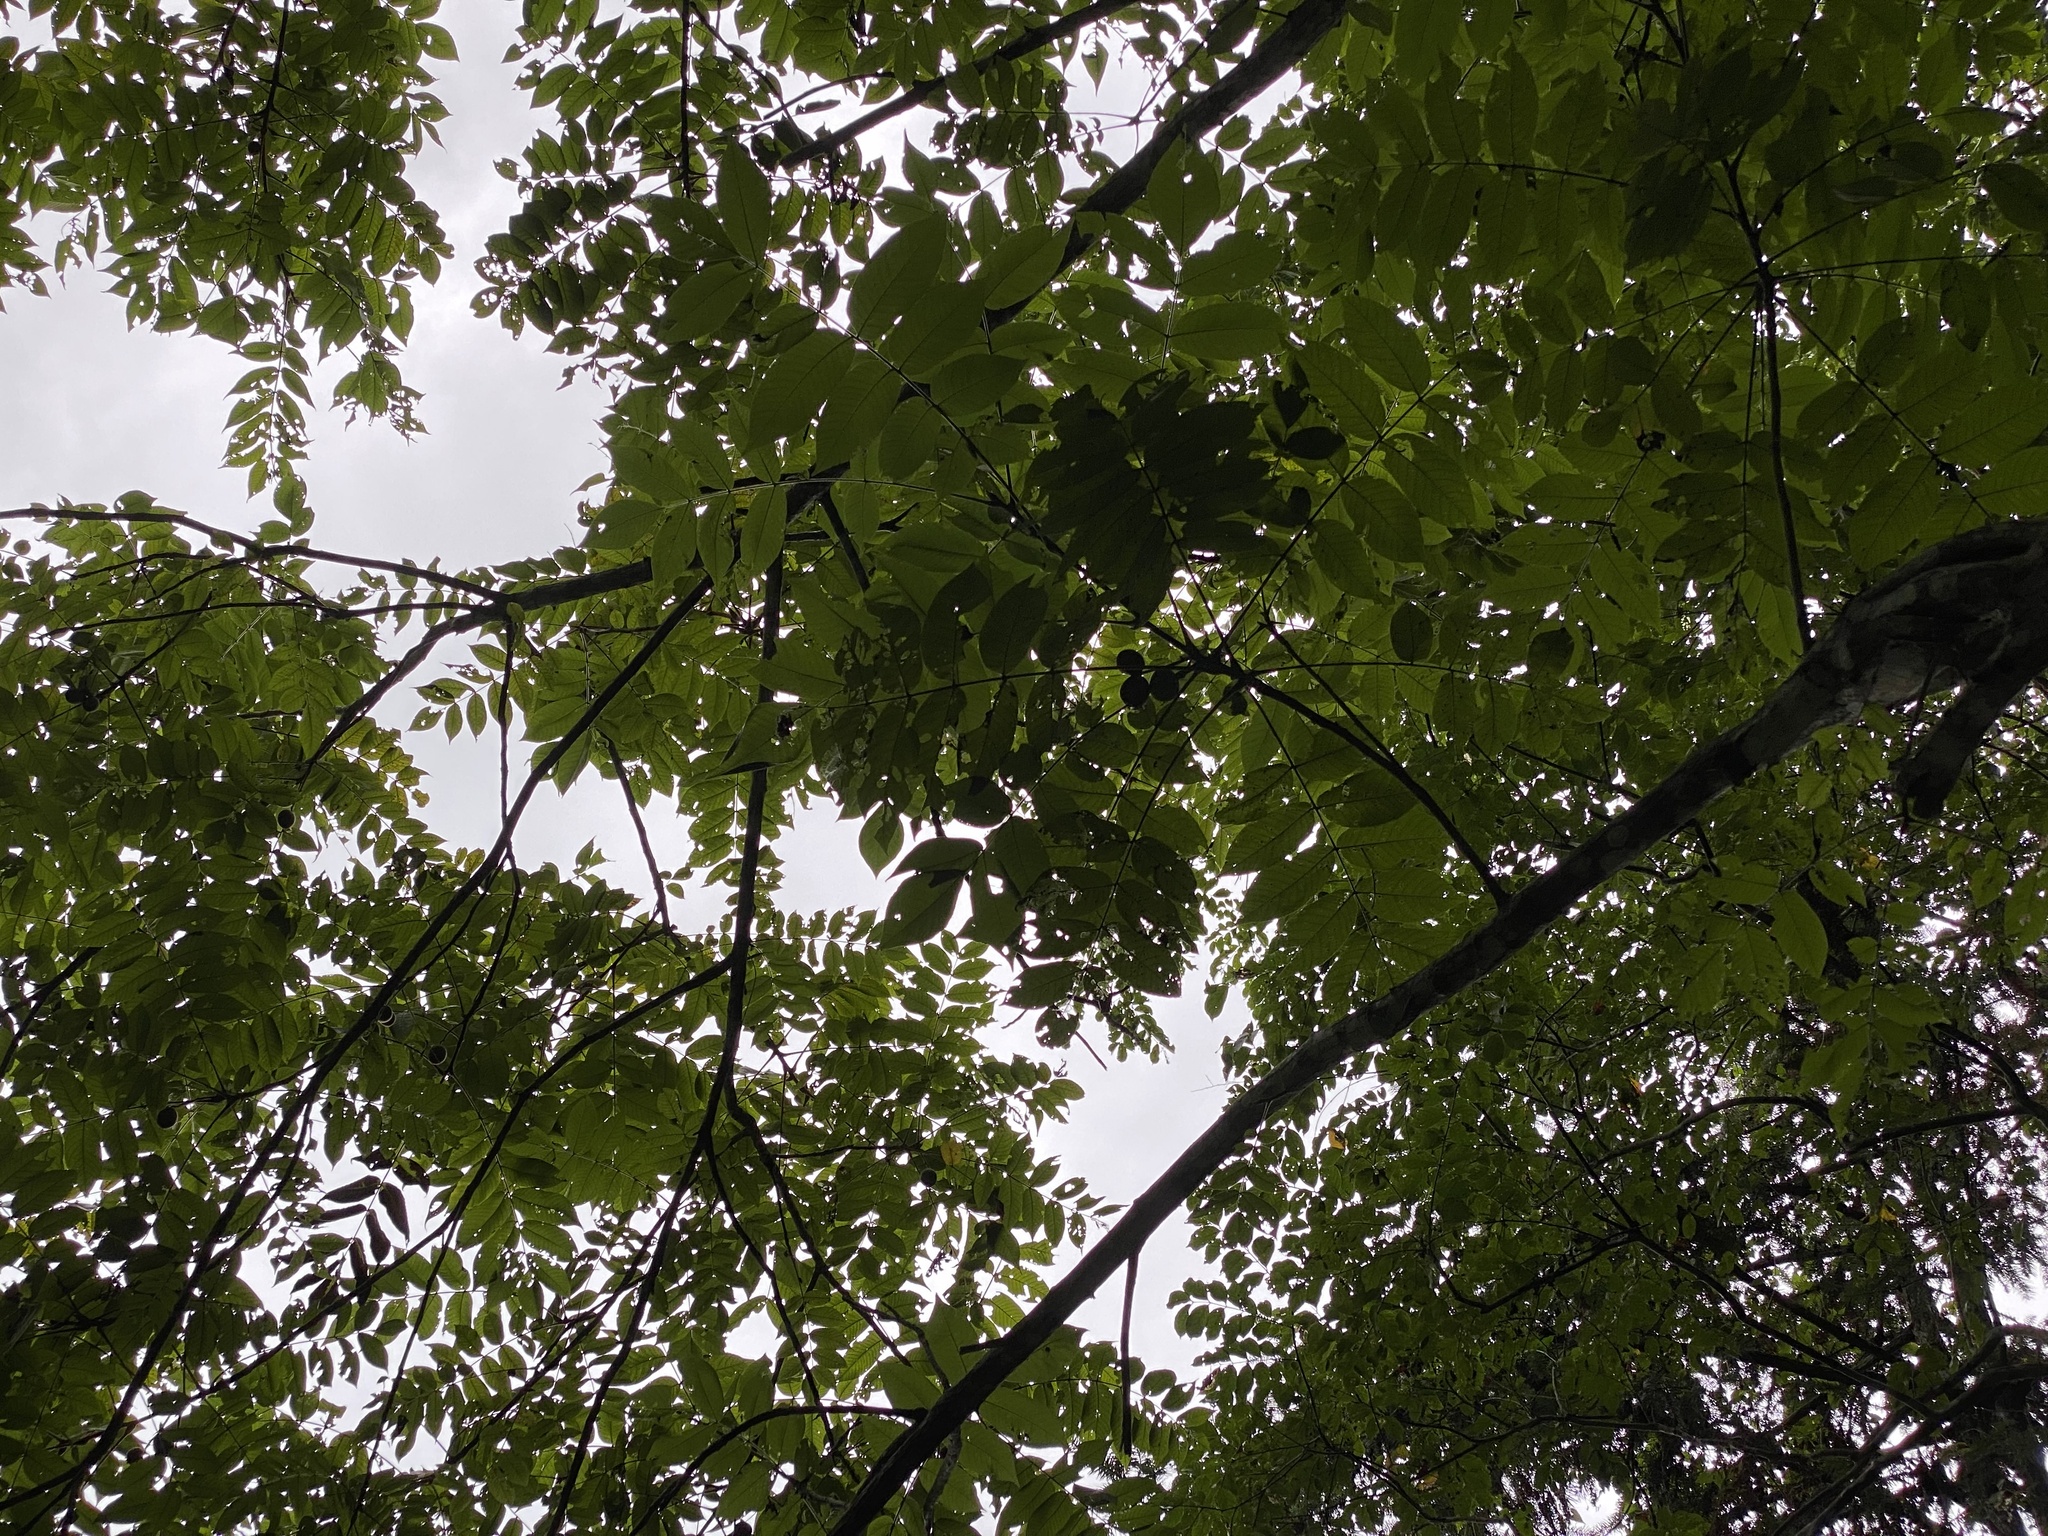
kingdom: Plantae
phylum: Tracheophyta
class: Magnoliopsida
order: Fagales
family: Juglandaceae
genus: Juglans
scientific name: Juglans mandshurica
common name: Manchurian walnut
